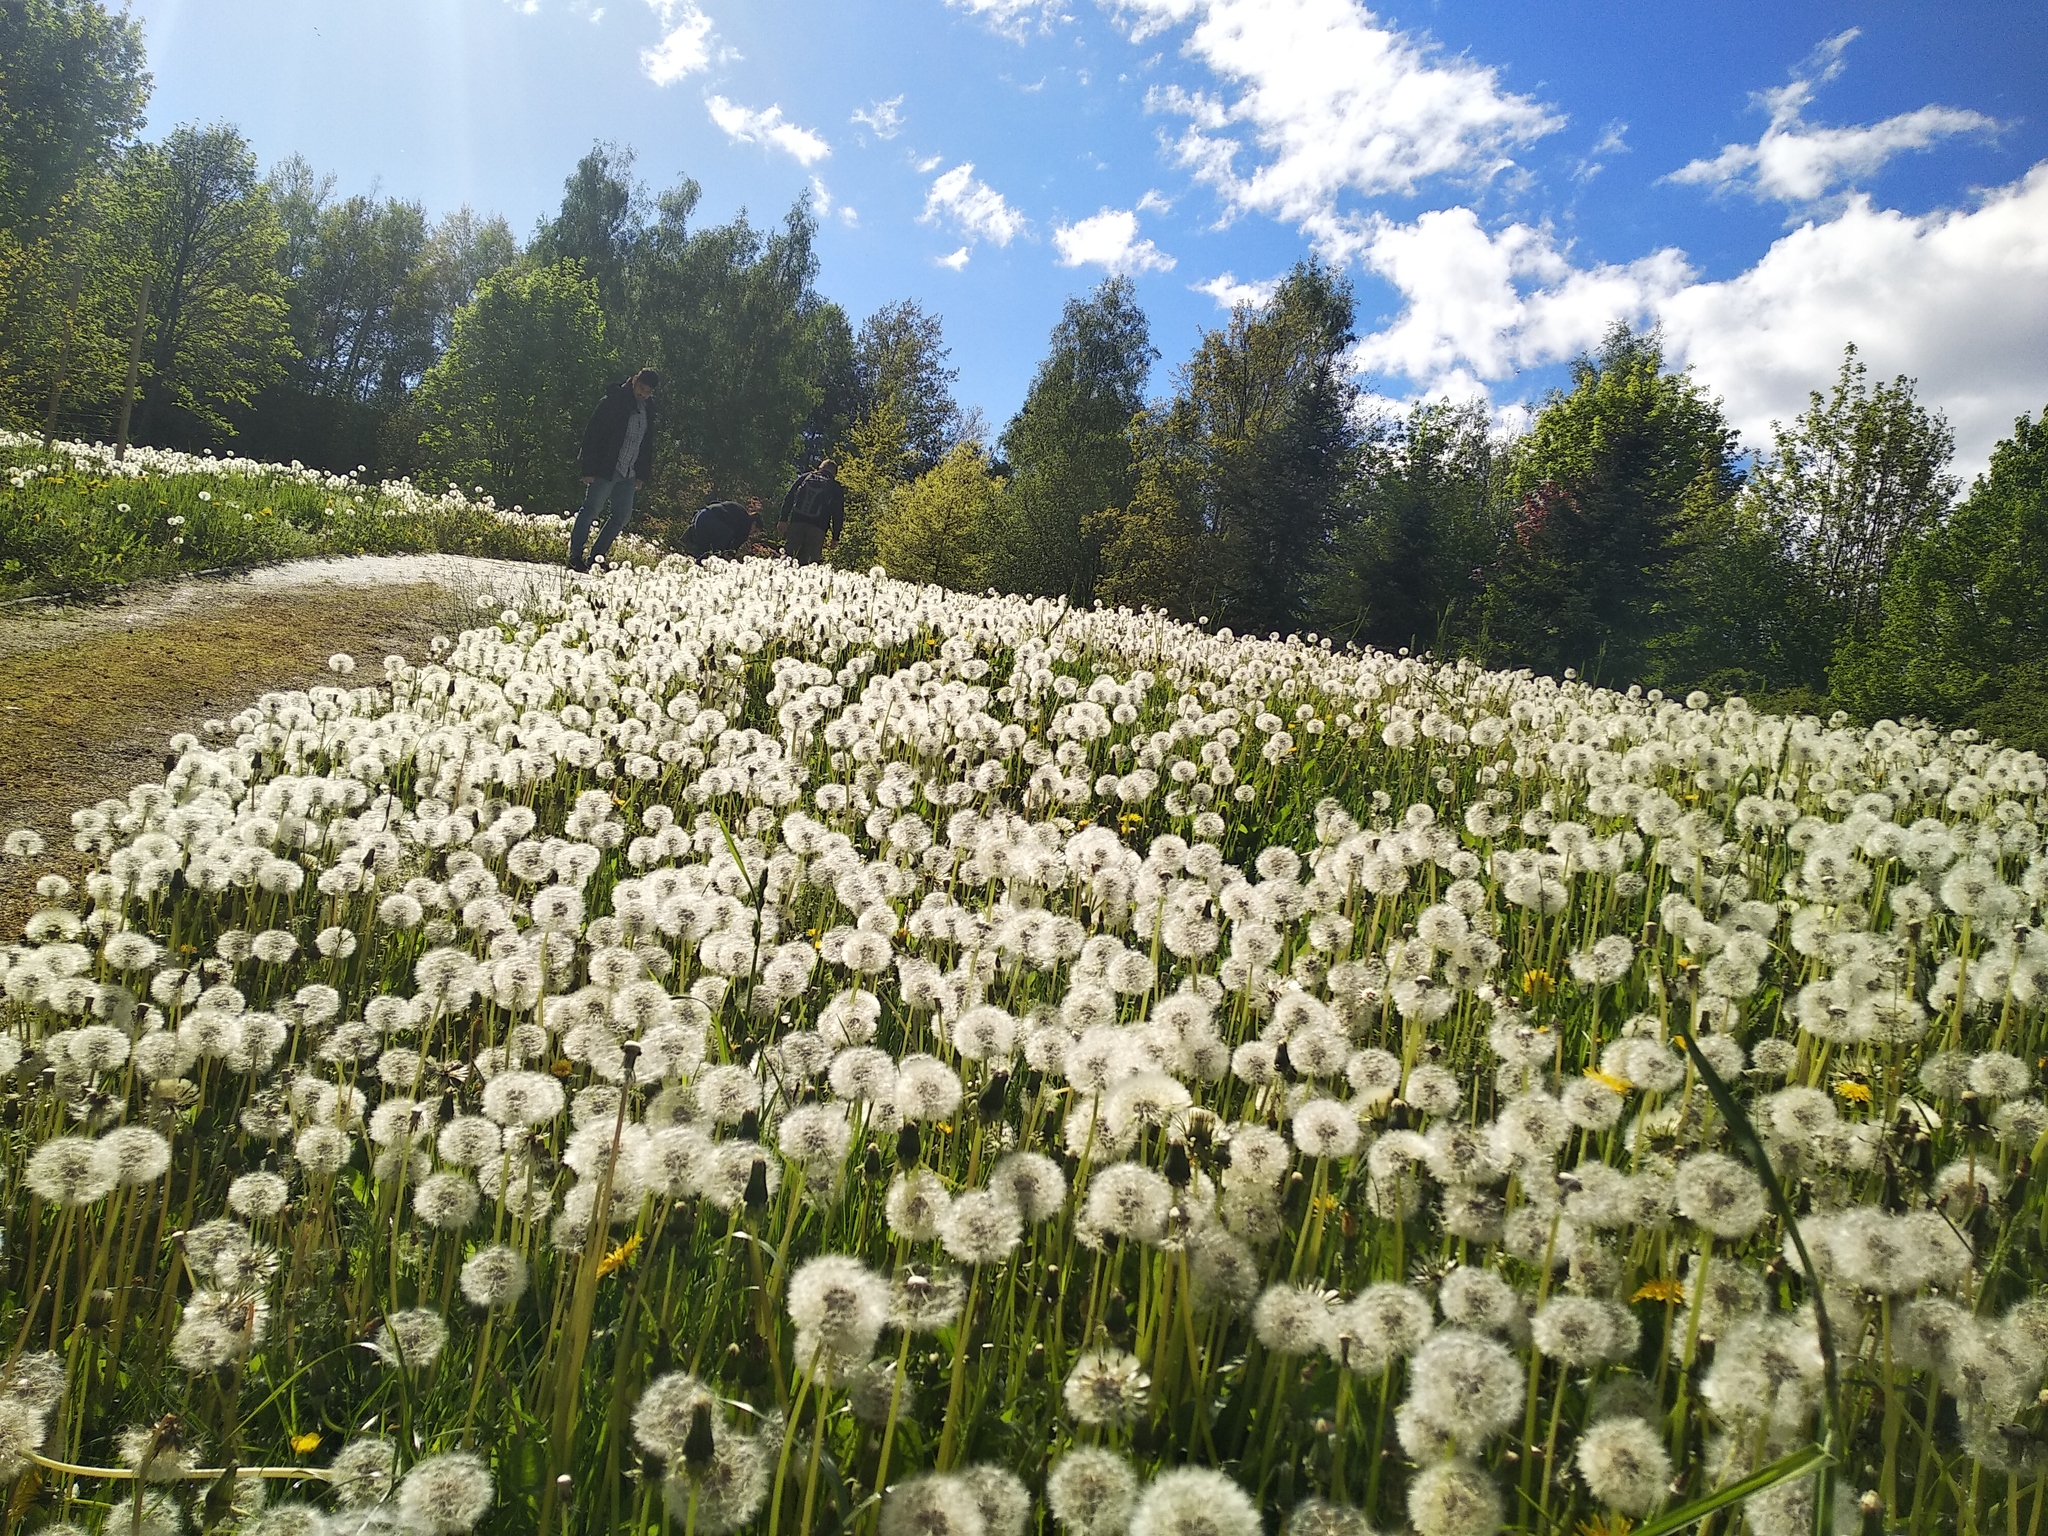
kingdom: Plantae
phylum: Tracheophyta
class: Magnoliopsida
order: Asterales
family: Asteraceae
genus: Taraxacum
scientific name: Taraxacum officinale
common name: Common dandelion
